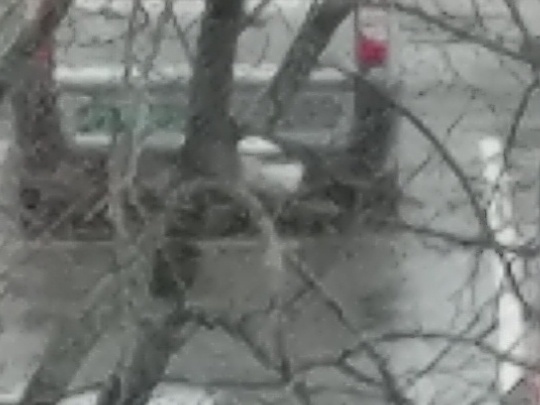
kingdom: Animalia
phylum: Chordata
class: Aves
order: Passeriformes
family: Corvidae
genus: Pica
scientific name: Pica pica
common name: Eurasian magpie
